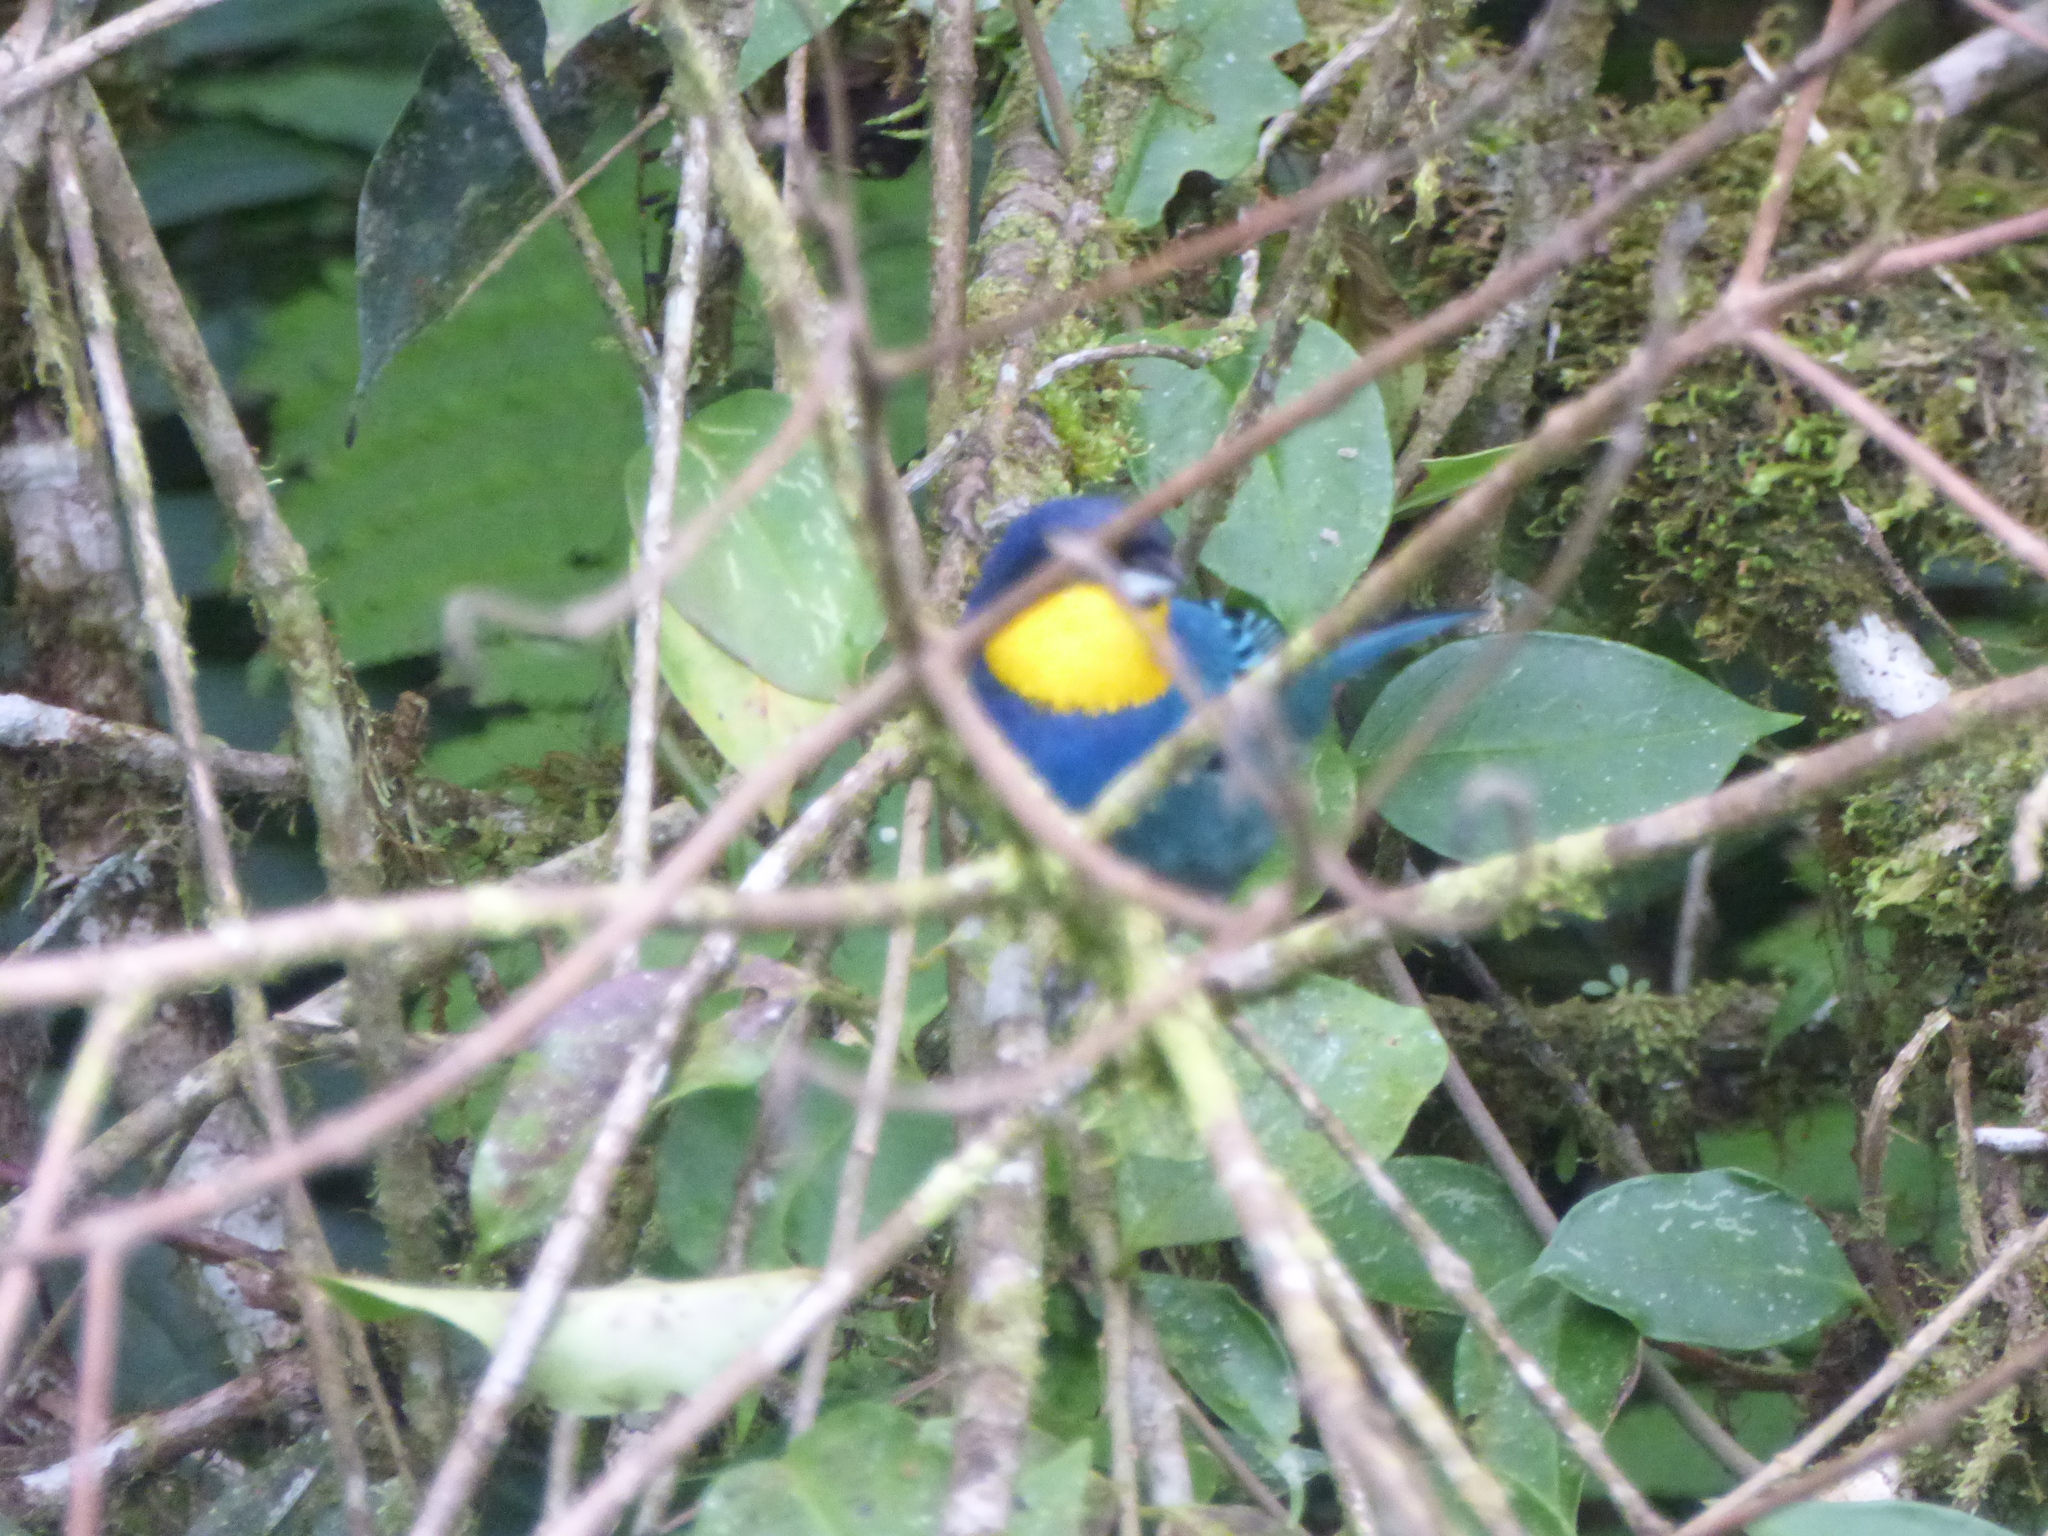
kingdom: Animalia
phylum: Chordata
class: Aves
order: Passeriformes
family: Thraupidae
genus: Iridosornis
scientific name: Iridosornis porphyrocephalus
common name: Purplish-mantled tanager
